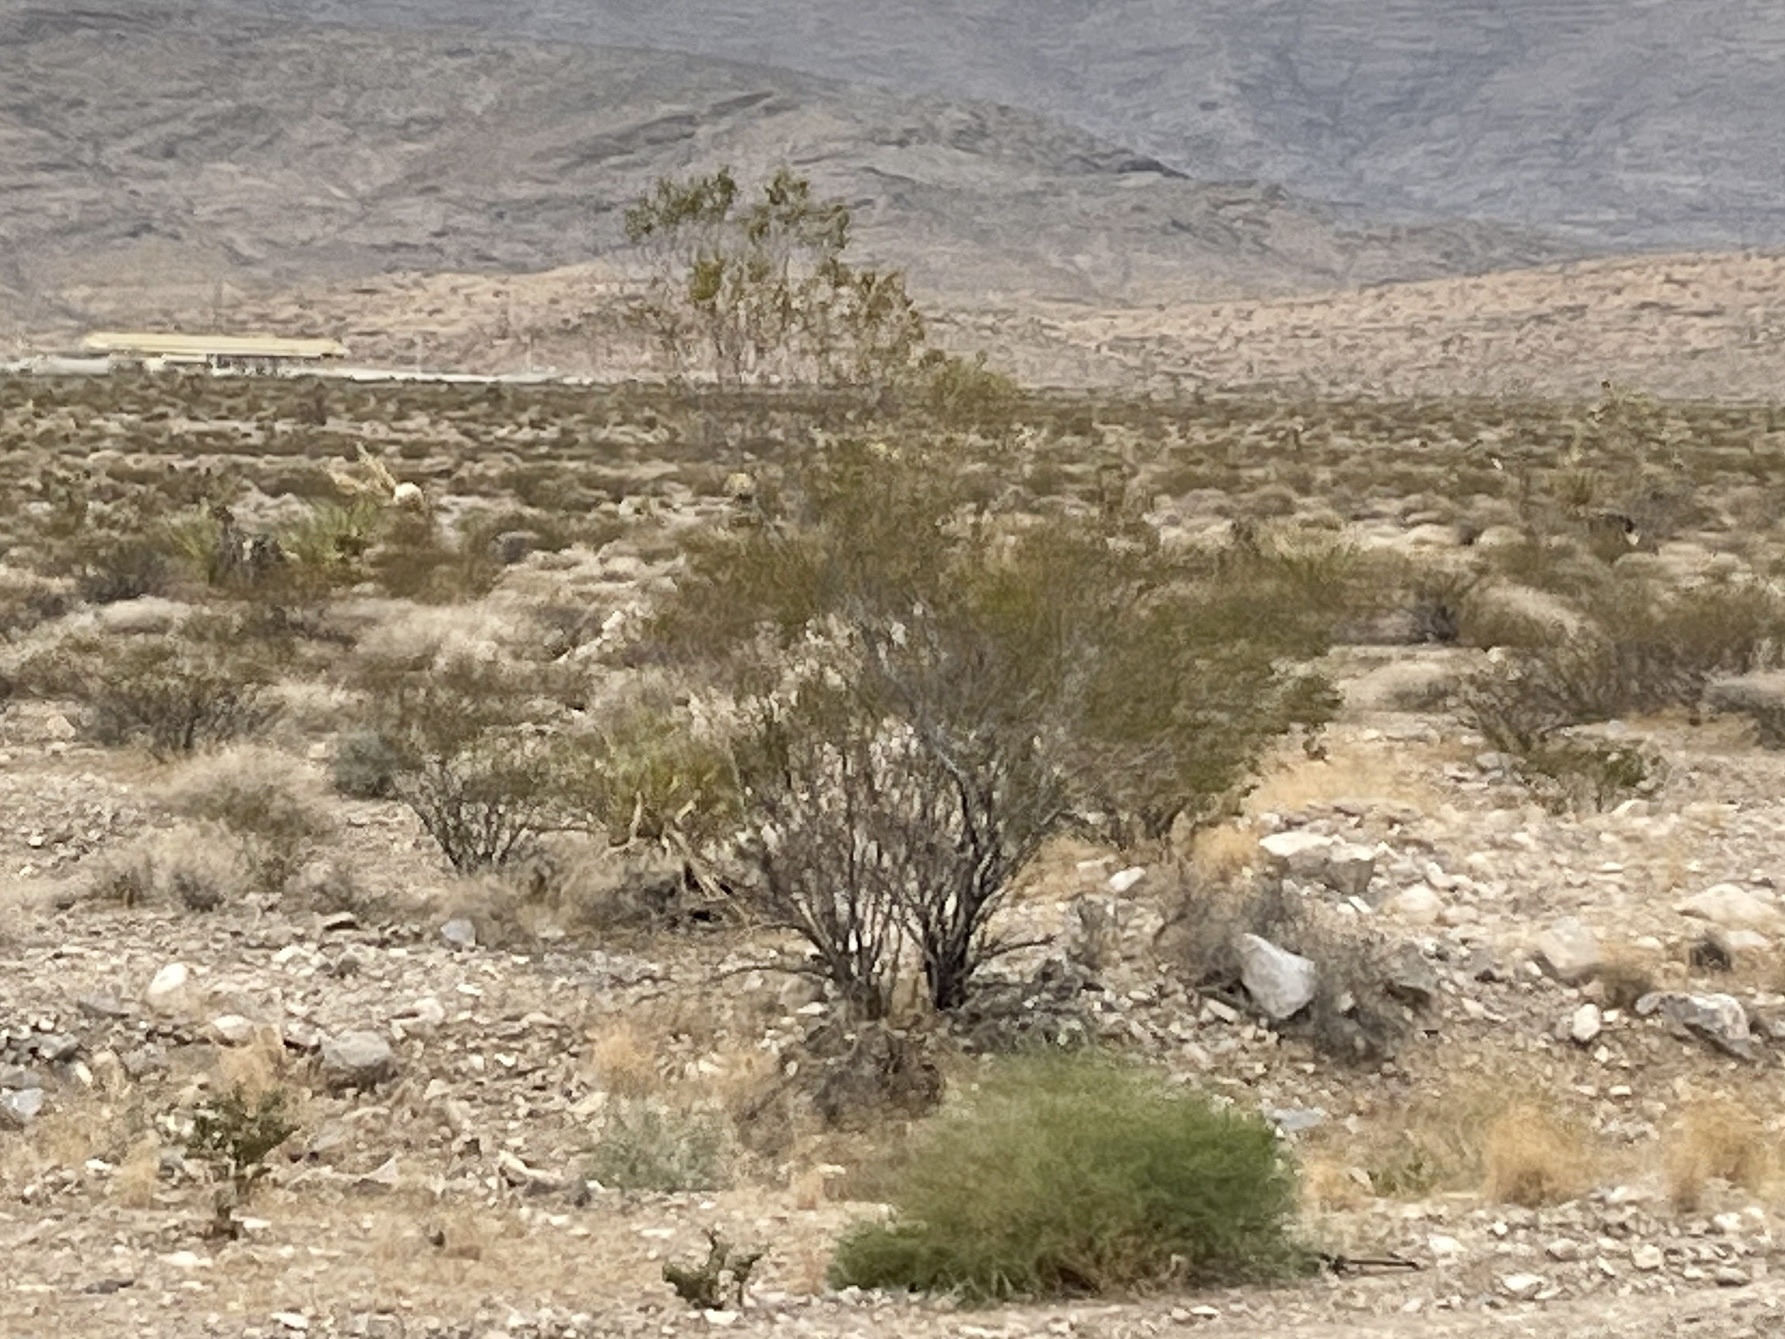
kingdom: Plantae
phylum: Tracheophyta
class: Magnoliopsida
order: Zygophyllales
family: Zygophyllaceae
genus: Larrea
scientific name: Larrea tridentata
